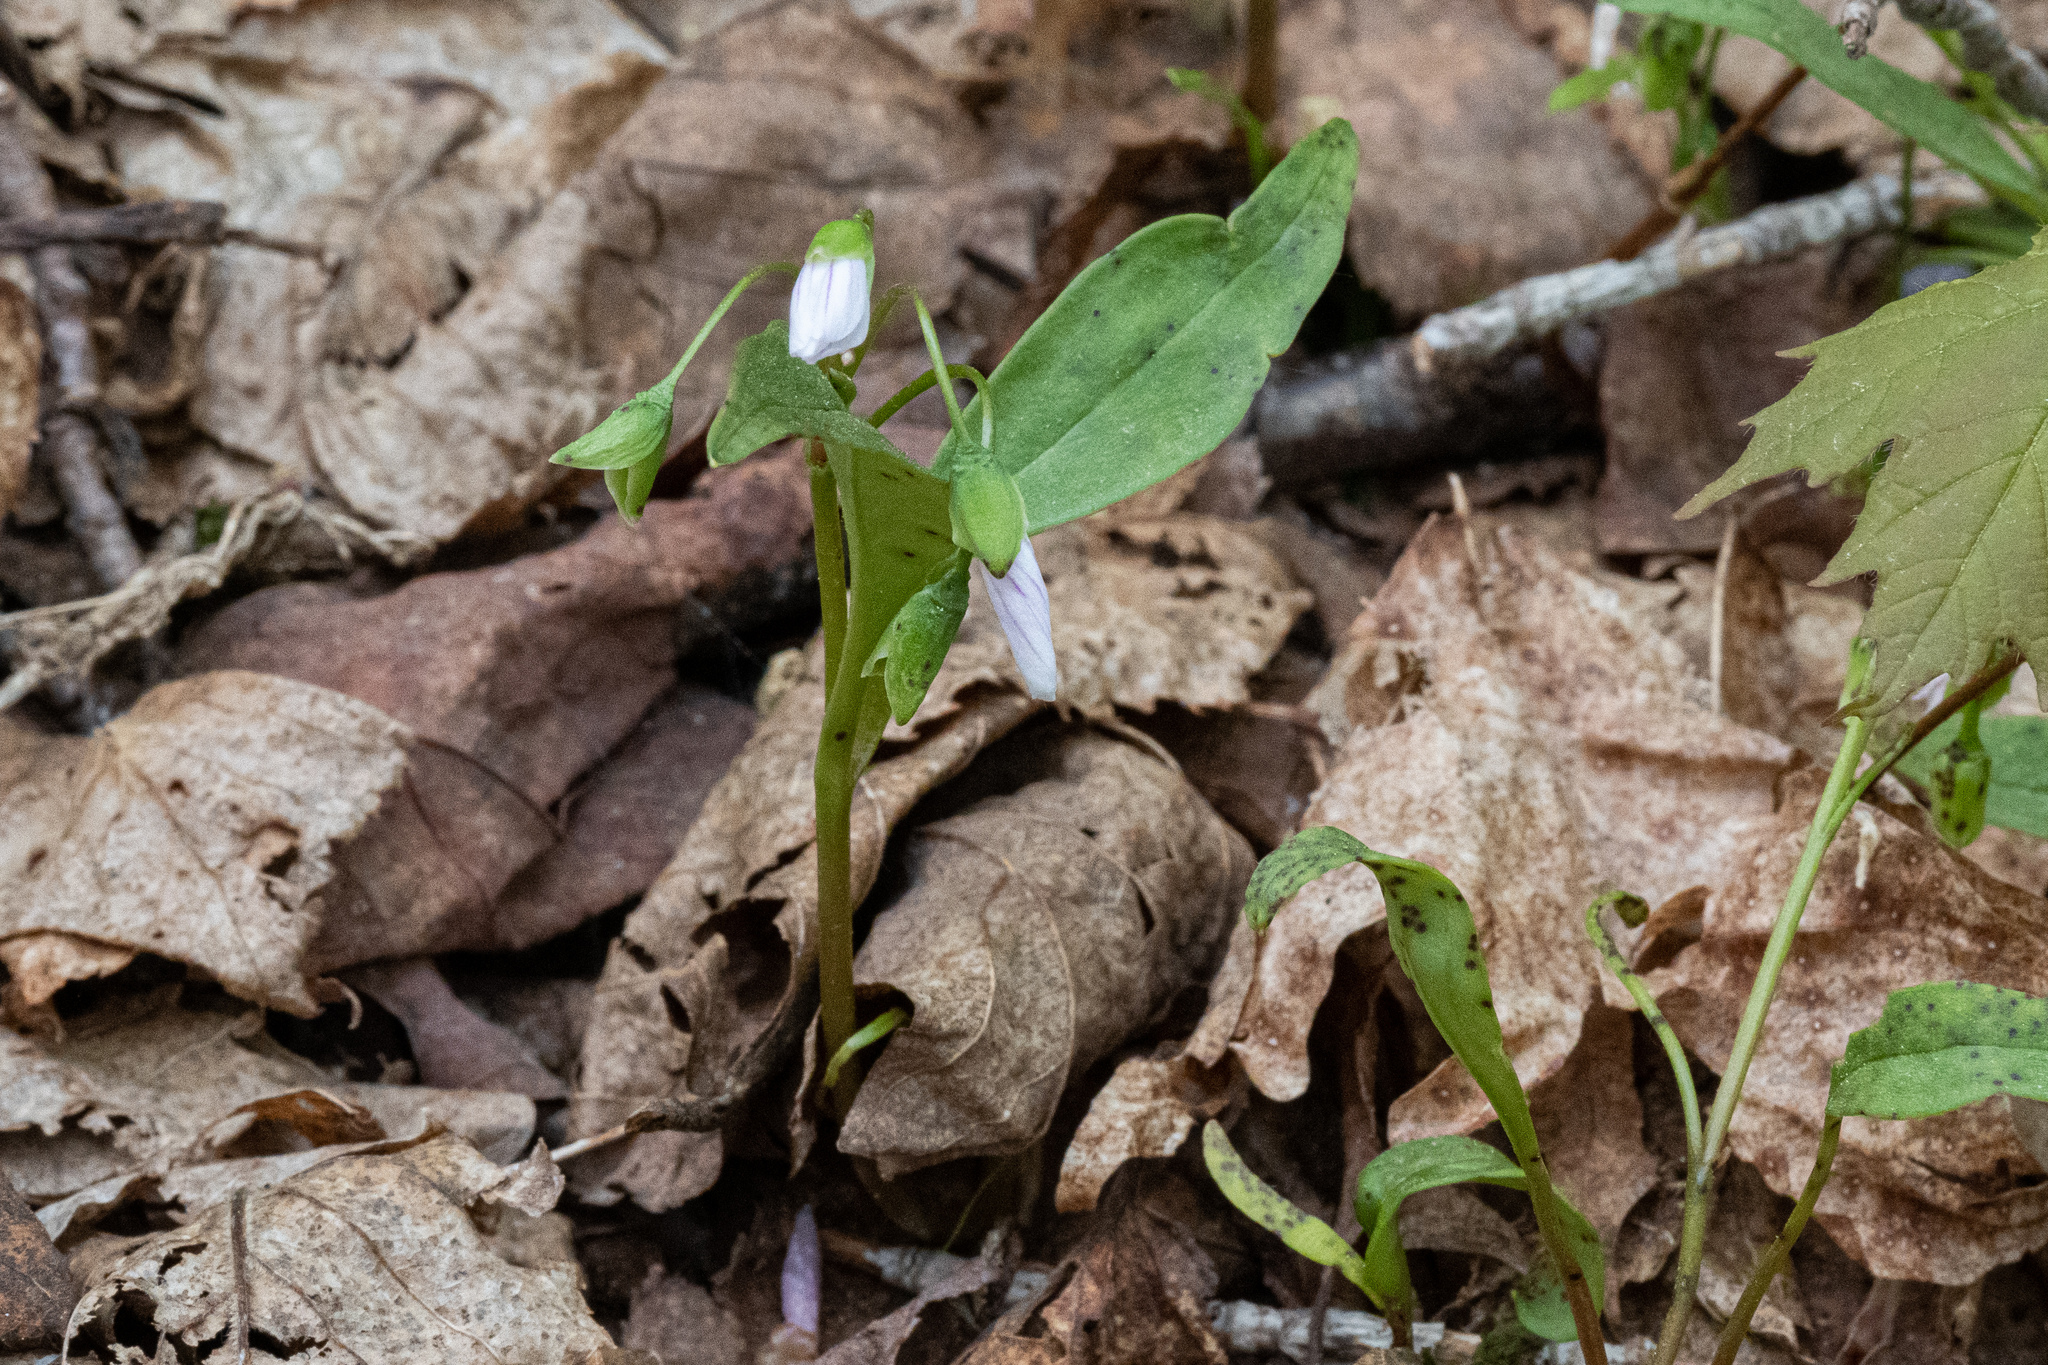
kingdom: Plantae
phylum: Tracheophyta
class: Magnoliopsida
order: Caryophyllales
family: Montiaceae
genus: Claytonia
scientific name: Claytonia caroliniana
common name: Carolina spring beauty
